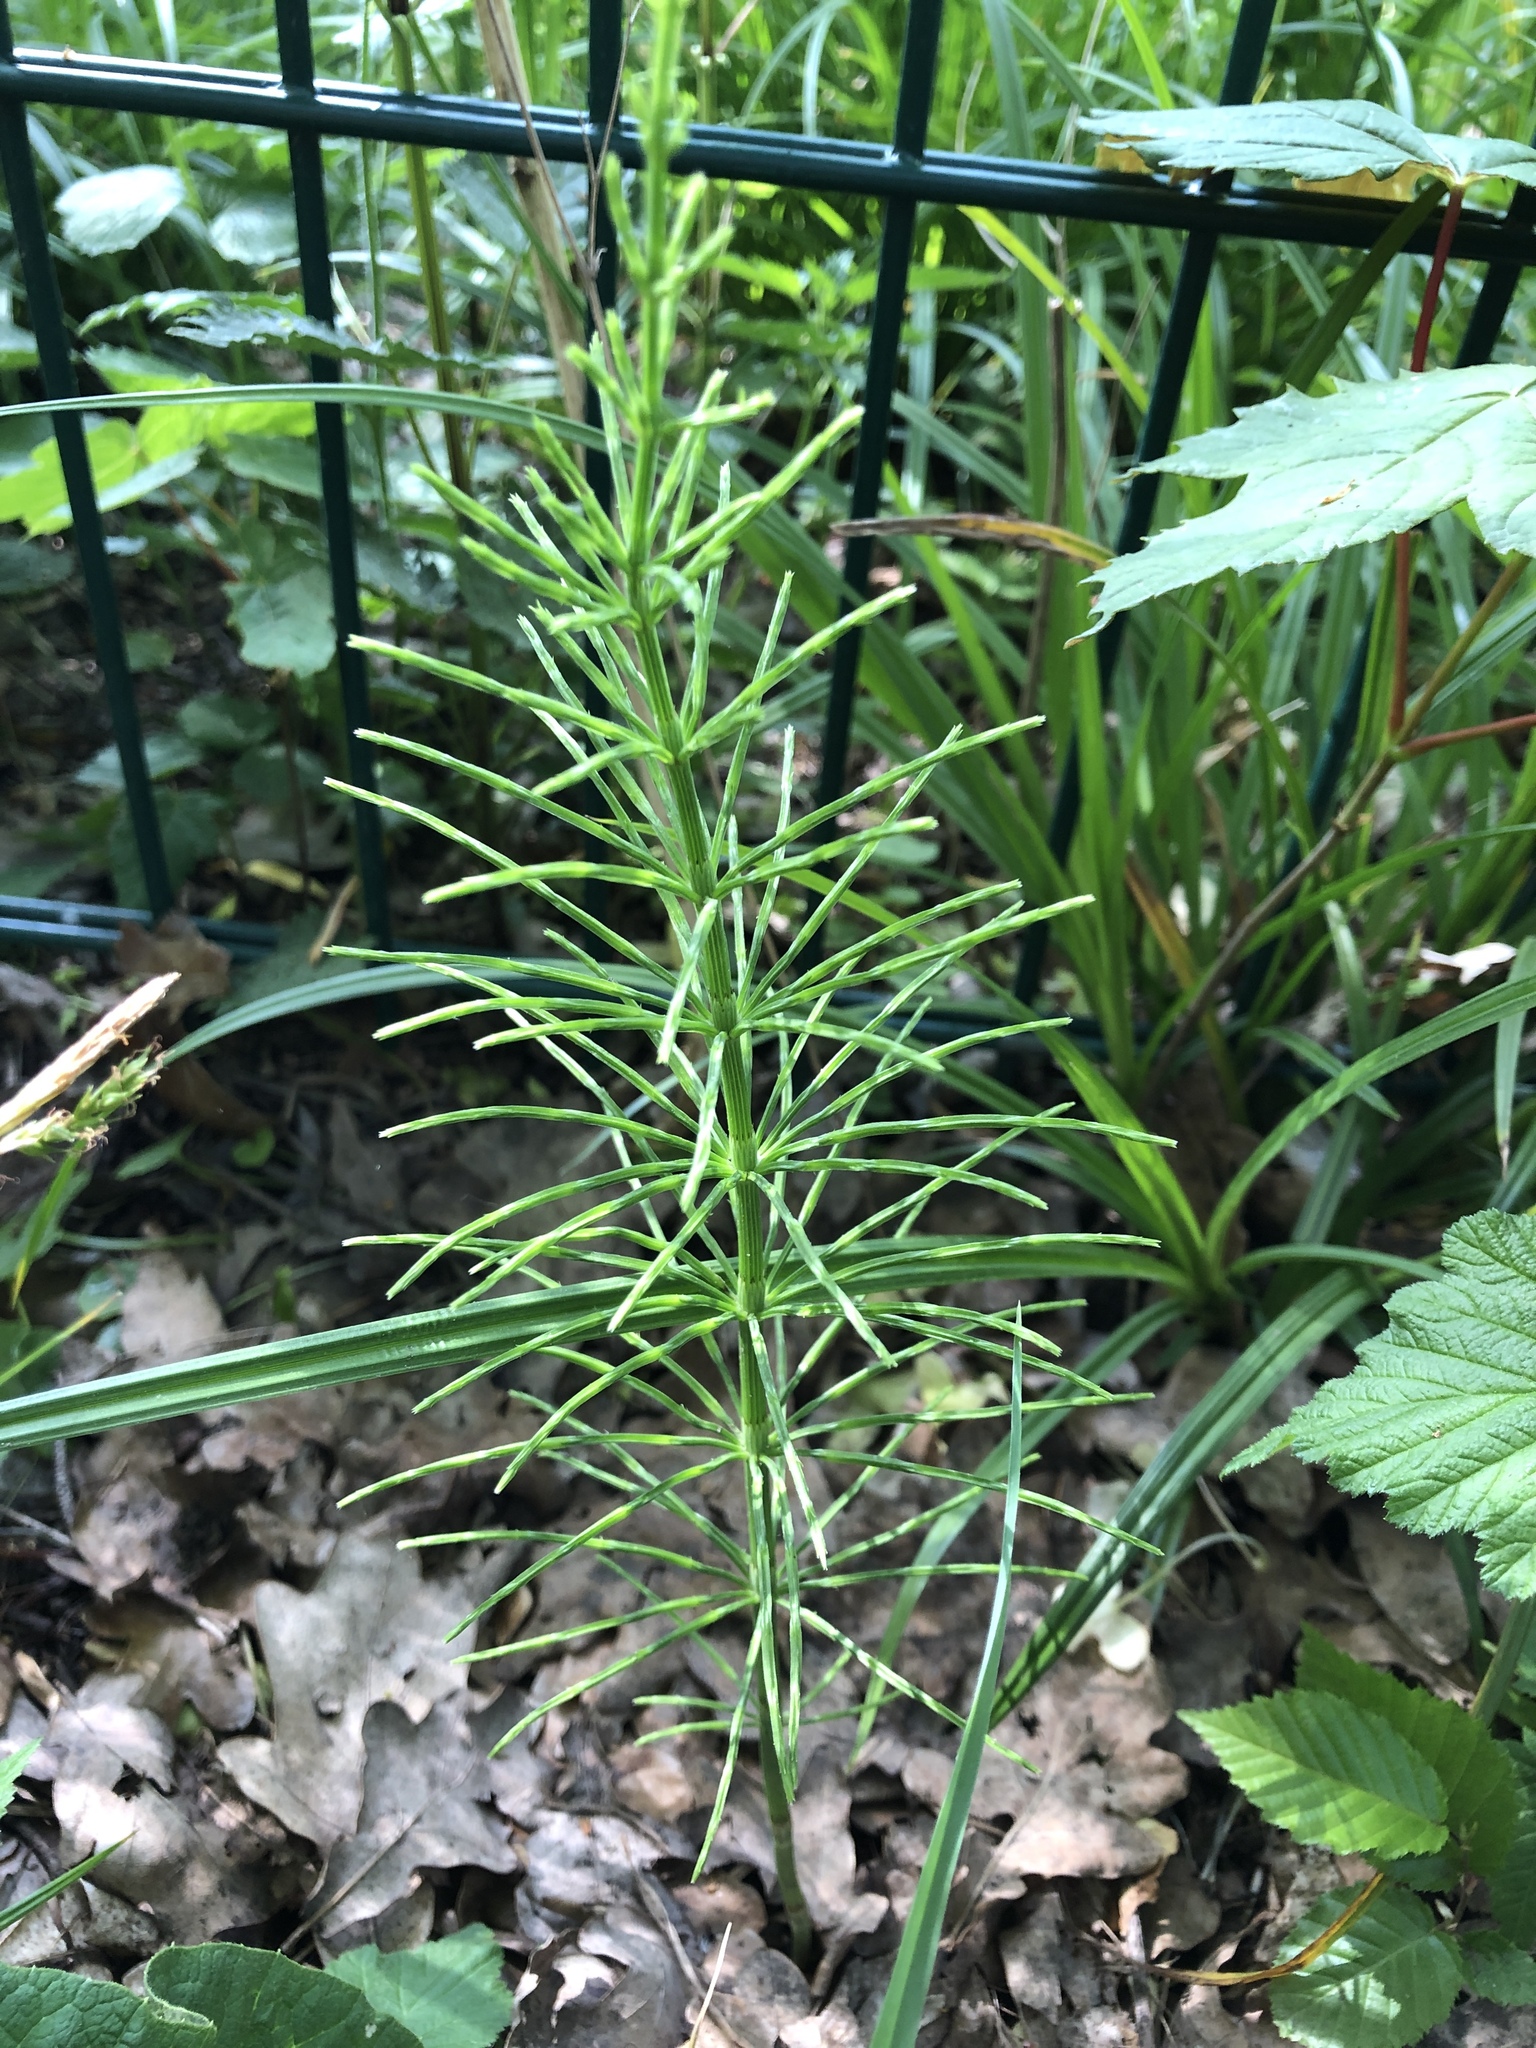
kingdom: Plantae
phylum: Tracheophyta
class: Polypodiopsida
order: Equisetales
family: Equisetaceae
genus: Equisetum
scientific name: Equisetum arvense
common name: Field horsetail
